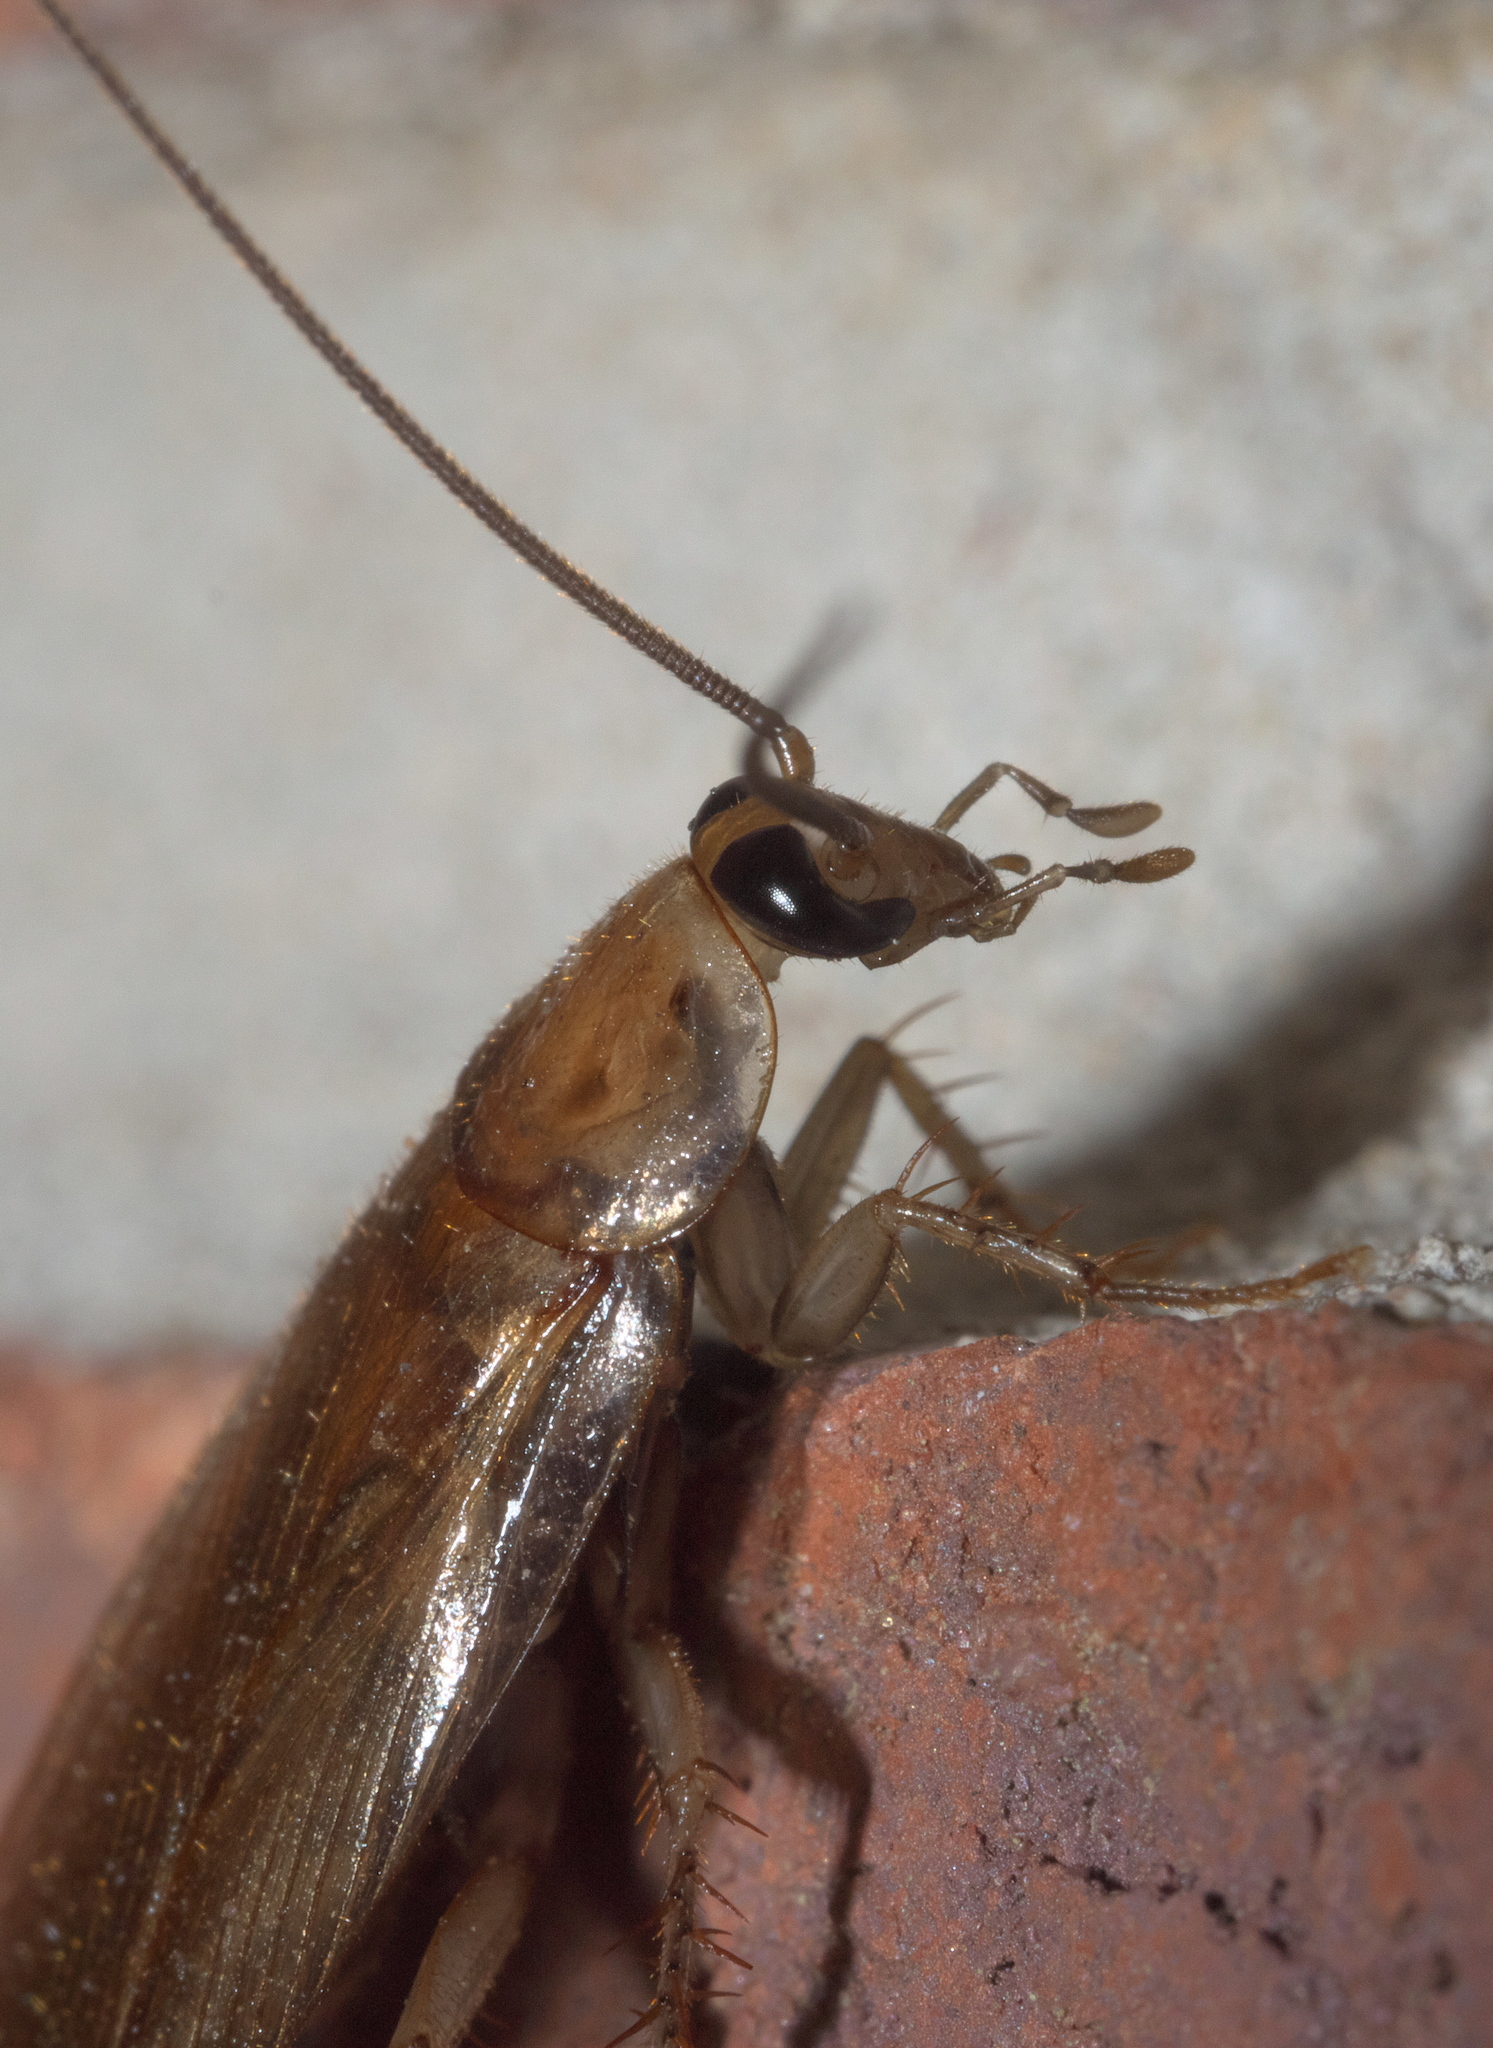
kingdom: Animalia
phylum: Arthropoda
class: Insecta
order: Blattodea
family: Ectobiidae
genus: Parcoblatta
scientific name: Parcoblatta zebra
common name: Banded wood cockroach
